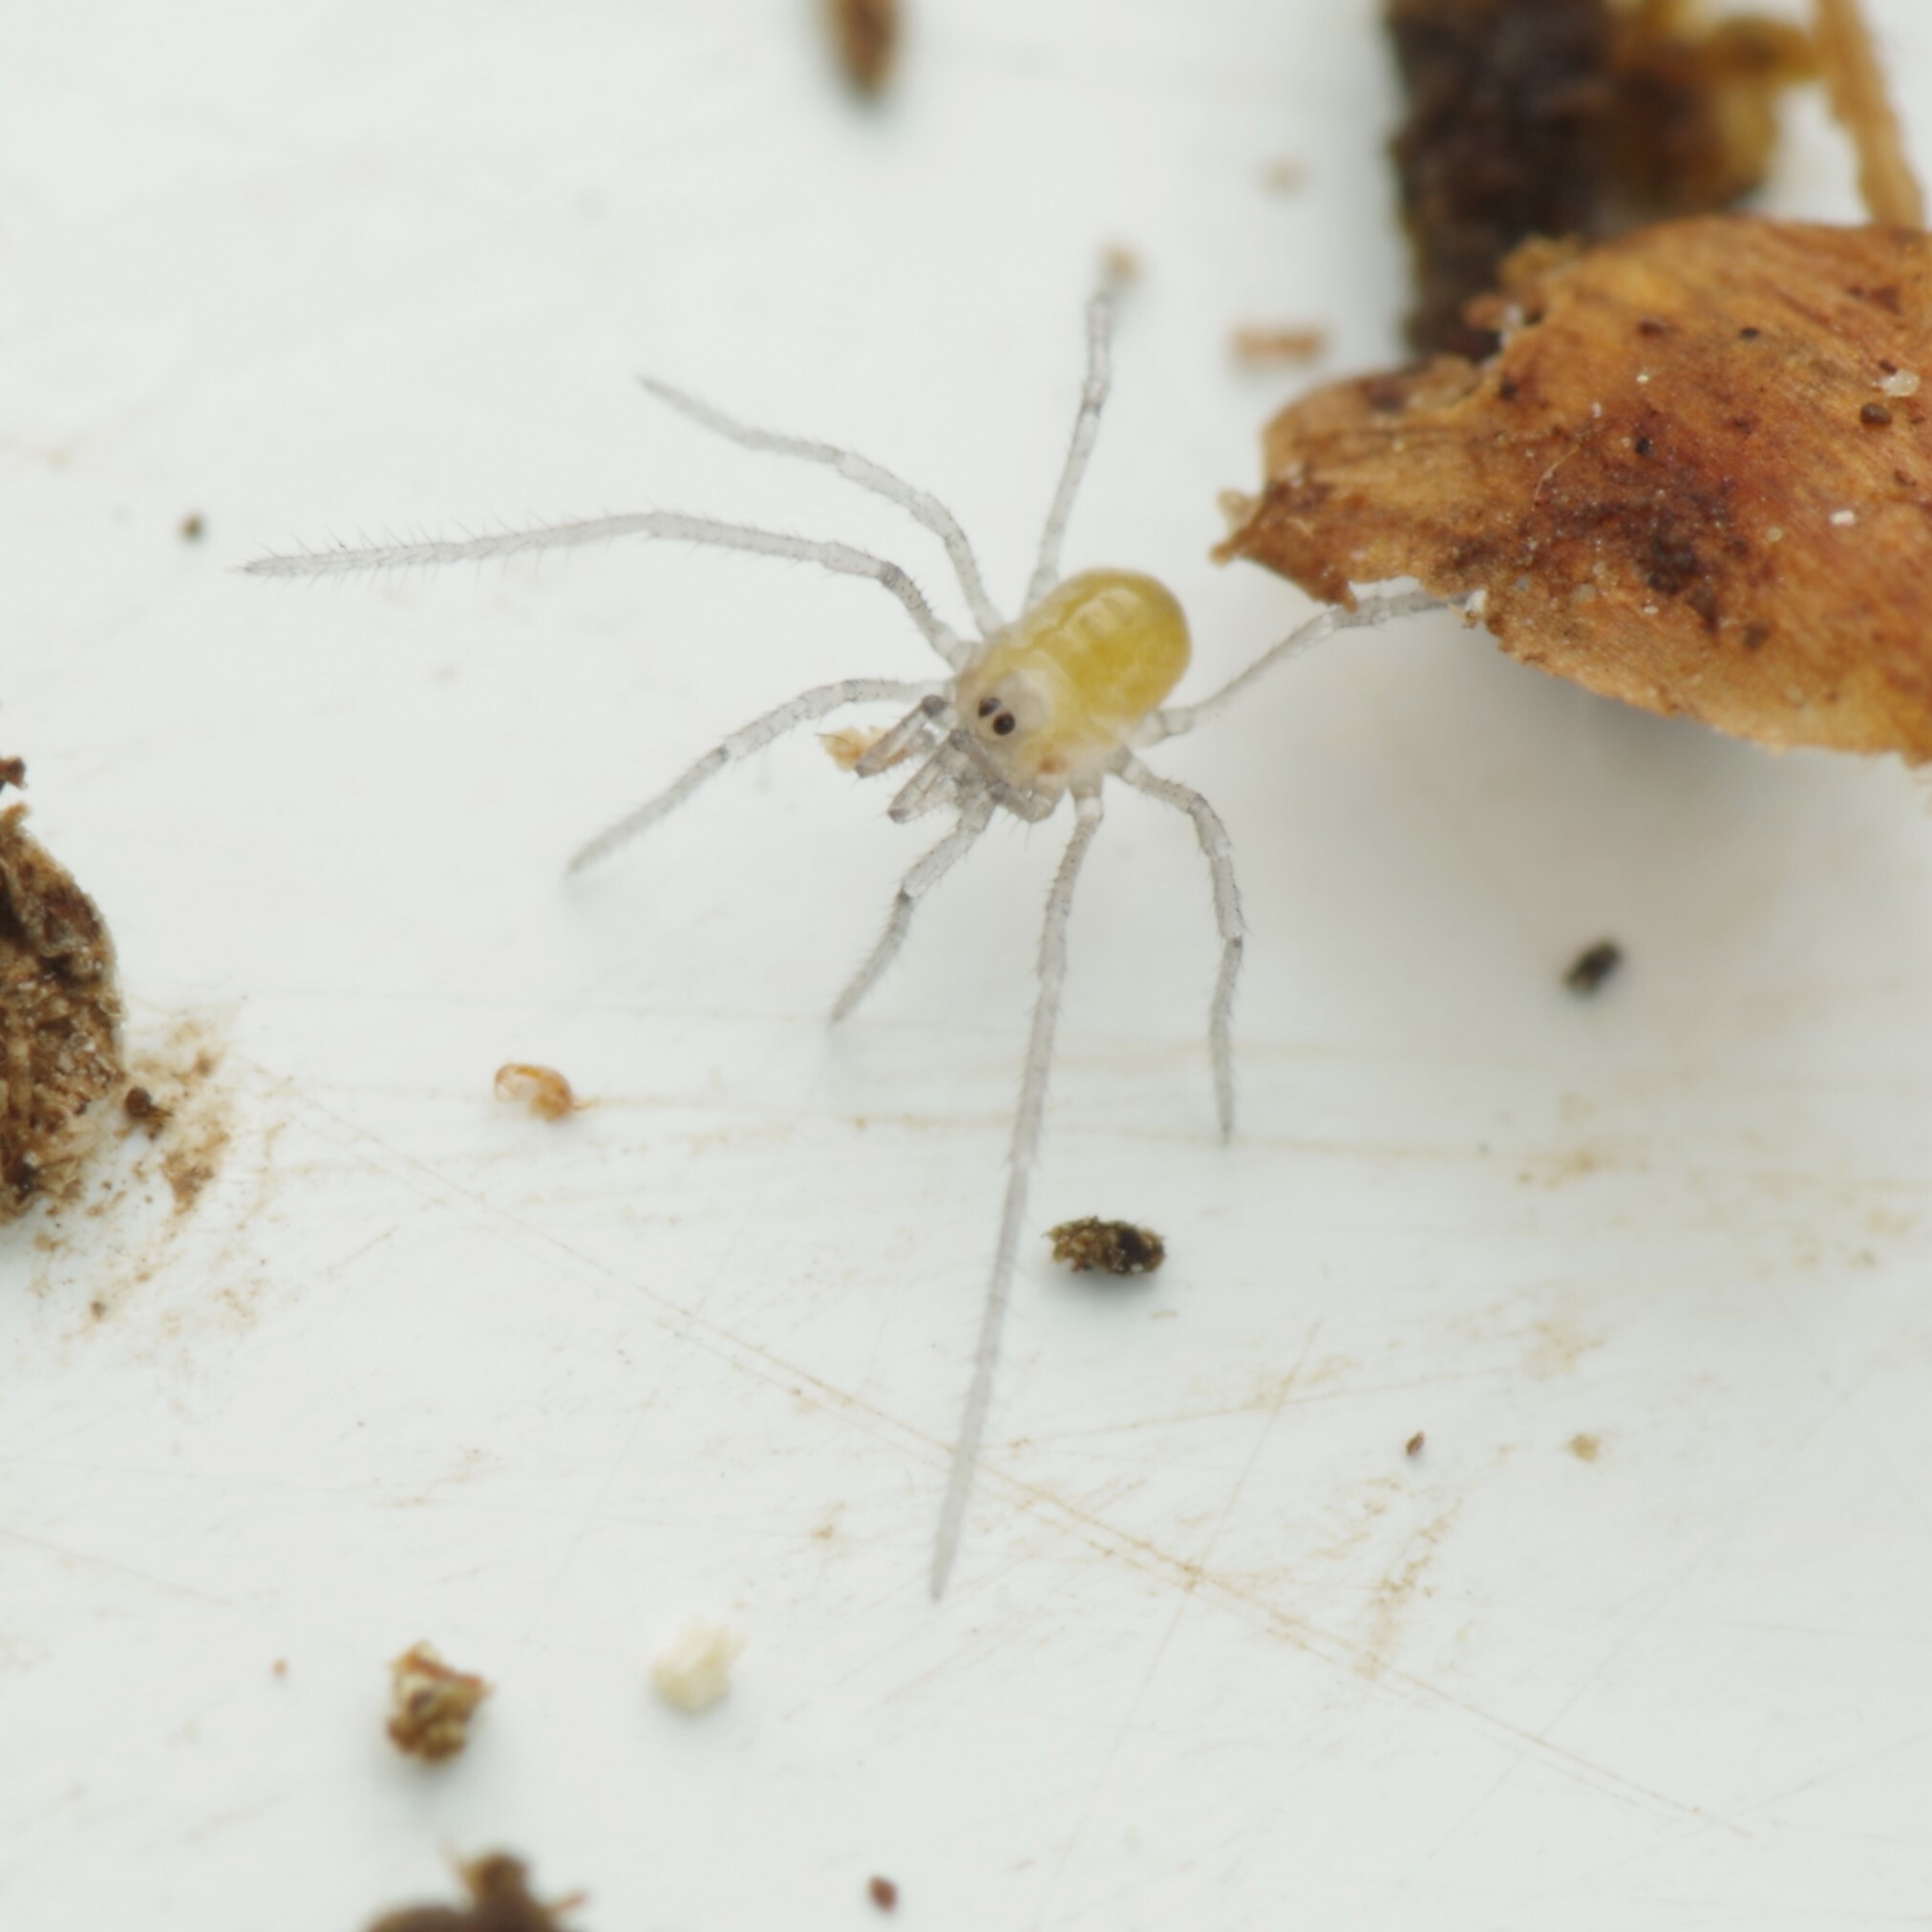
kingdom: Animalia
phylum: Arthropoda
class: Arachnida
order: Opiliones
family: Nemastomatidae
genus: Mitostoma
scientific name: Mitostoma chrysomelas
